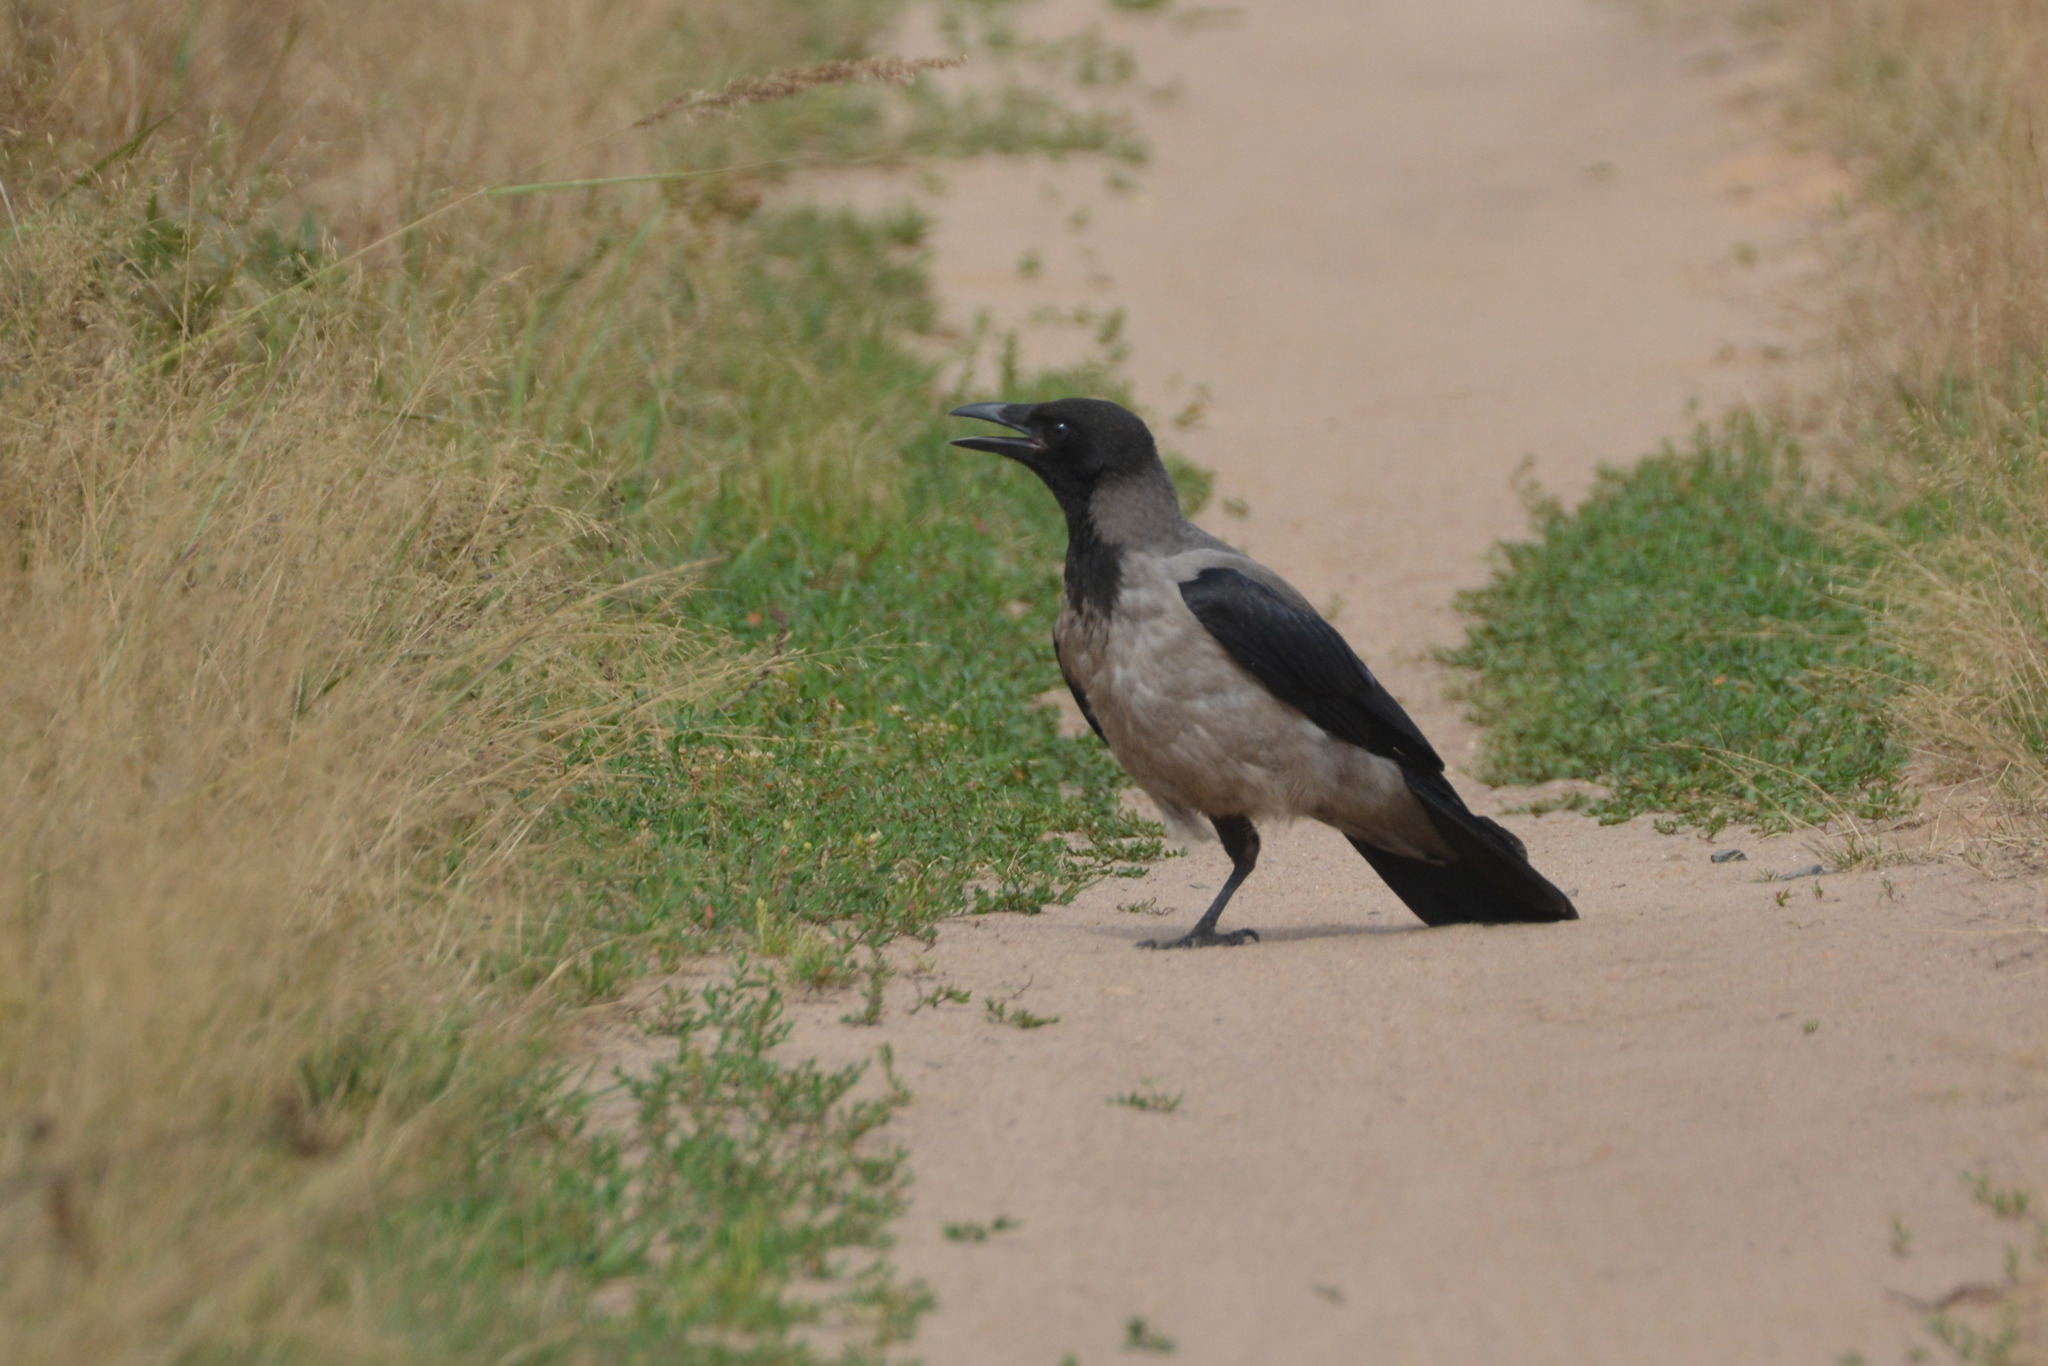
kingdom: Animalia
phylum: Chordata
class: Aves
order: Passeriformes
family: Corvidae
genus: Corvus
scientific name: Corvus cornix
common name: Hooded crow
